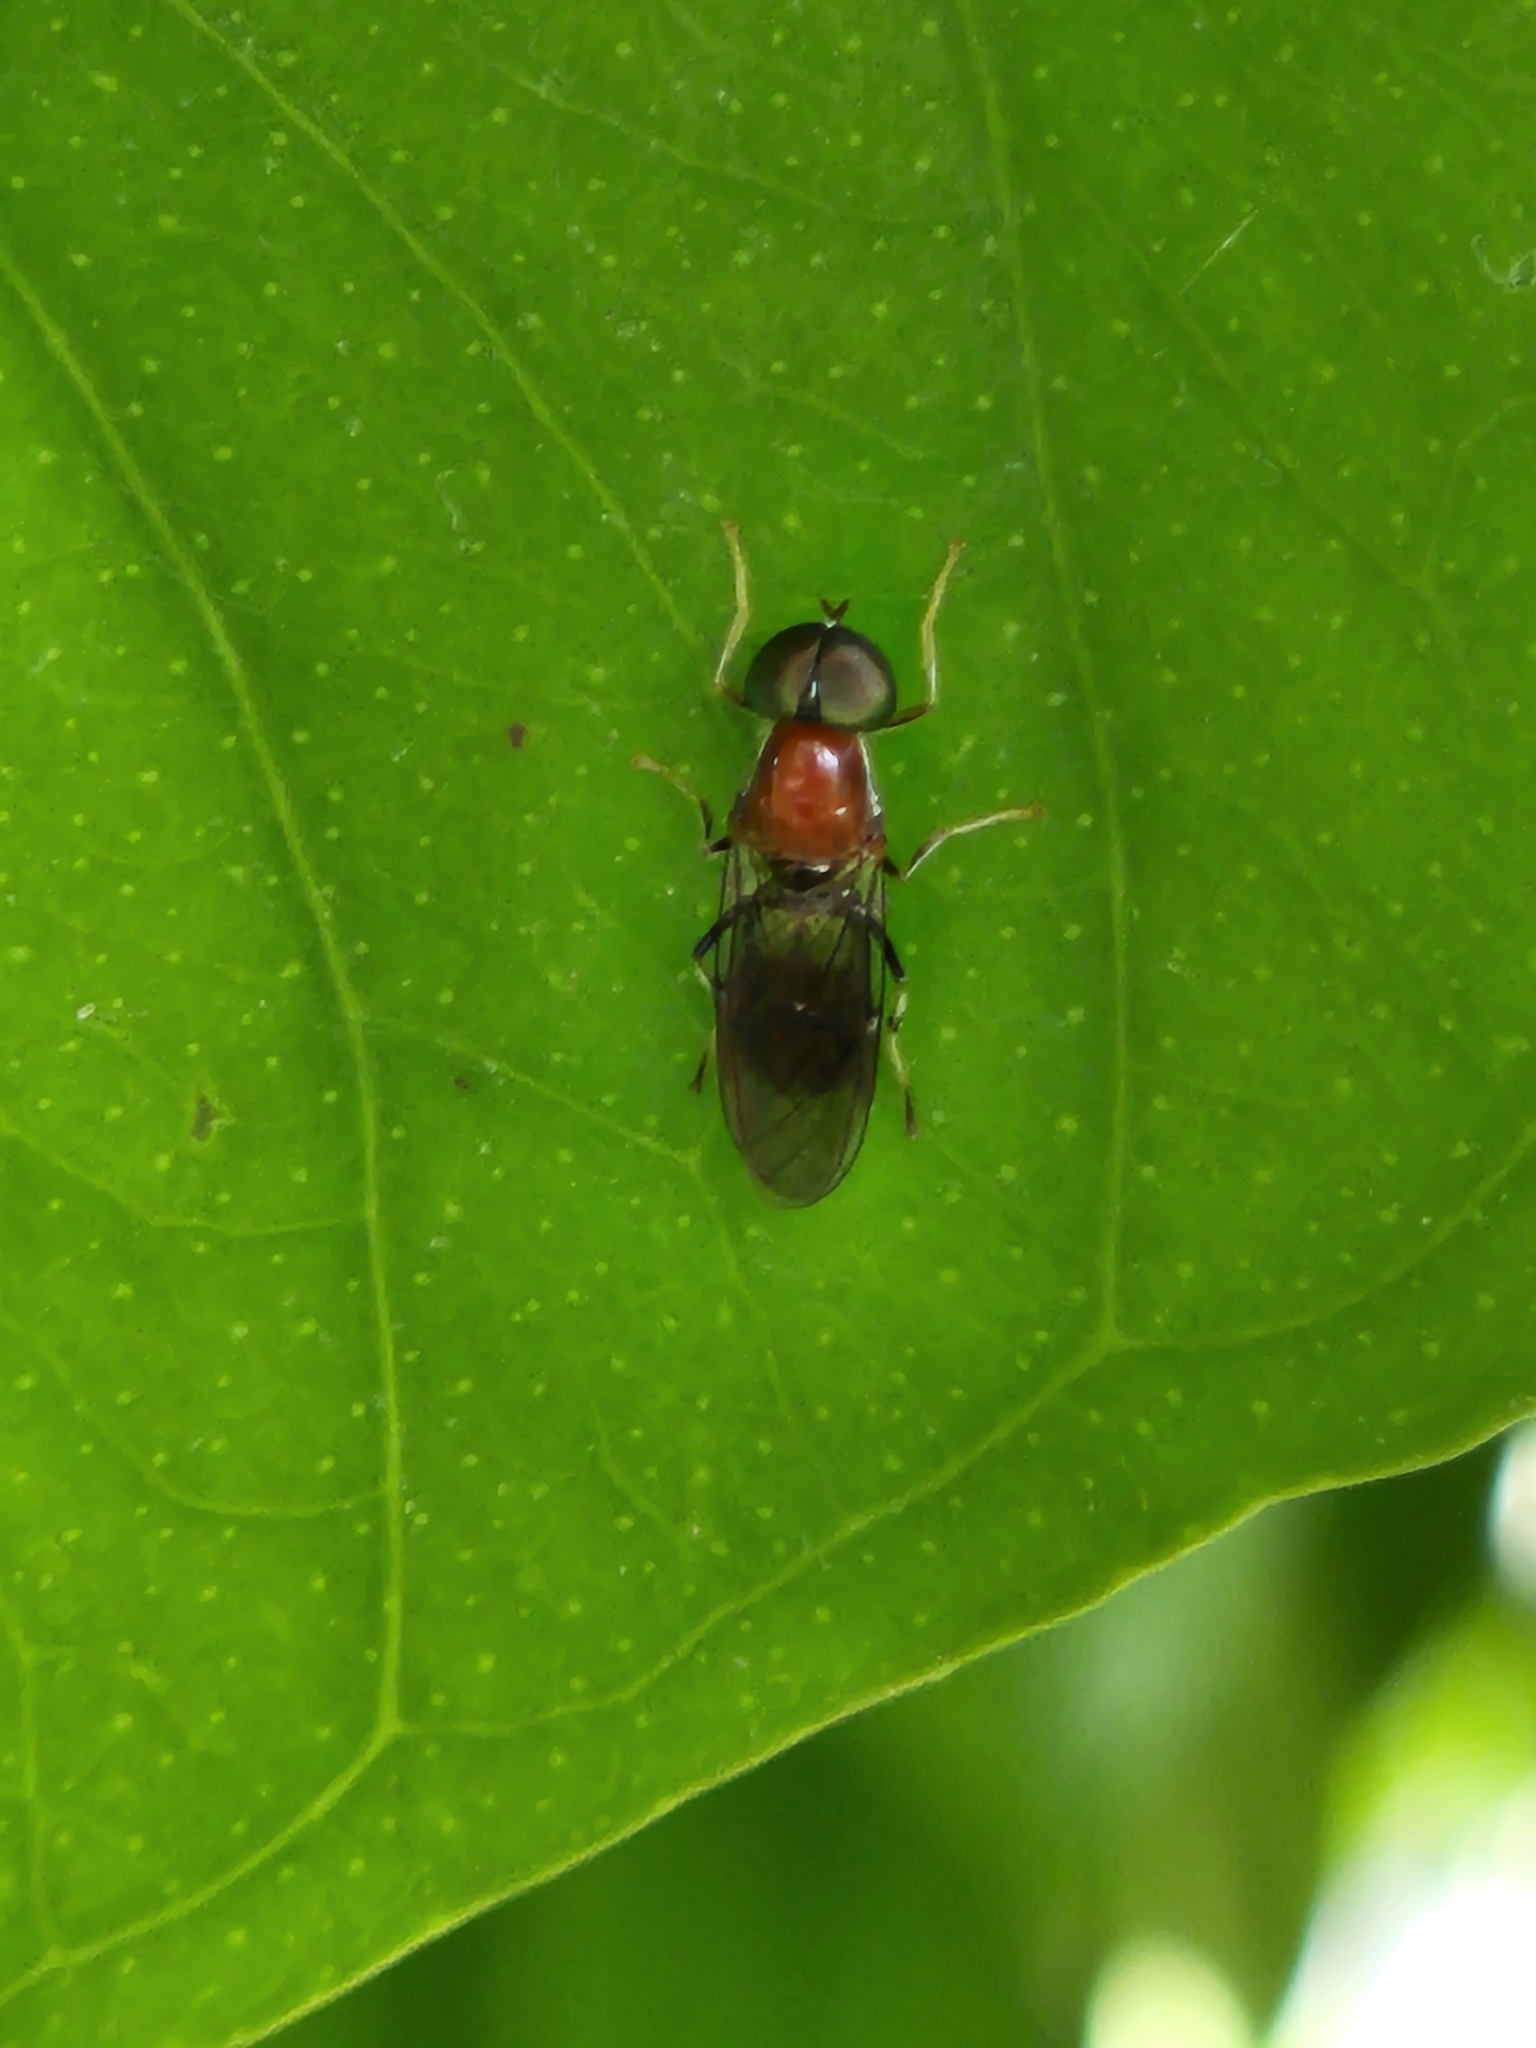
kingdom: Animalia
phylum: Arthropoda
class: Insecta
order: Diptera
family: Stratiomyidae
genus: Sargus
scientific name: Sargus thoracicus
